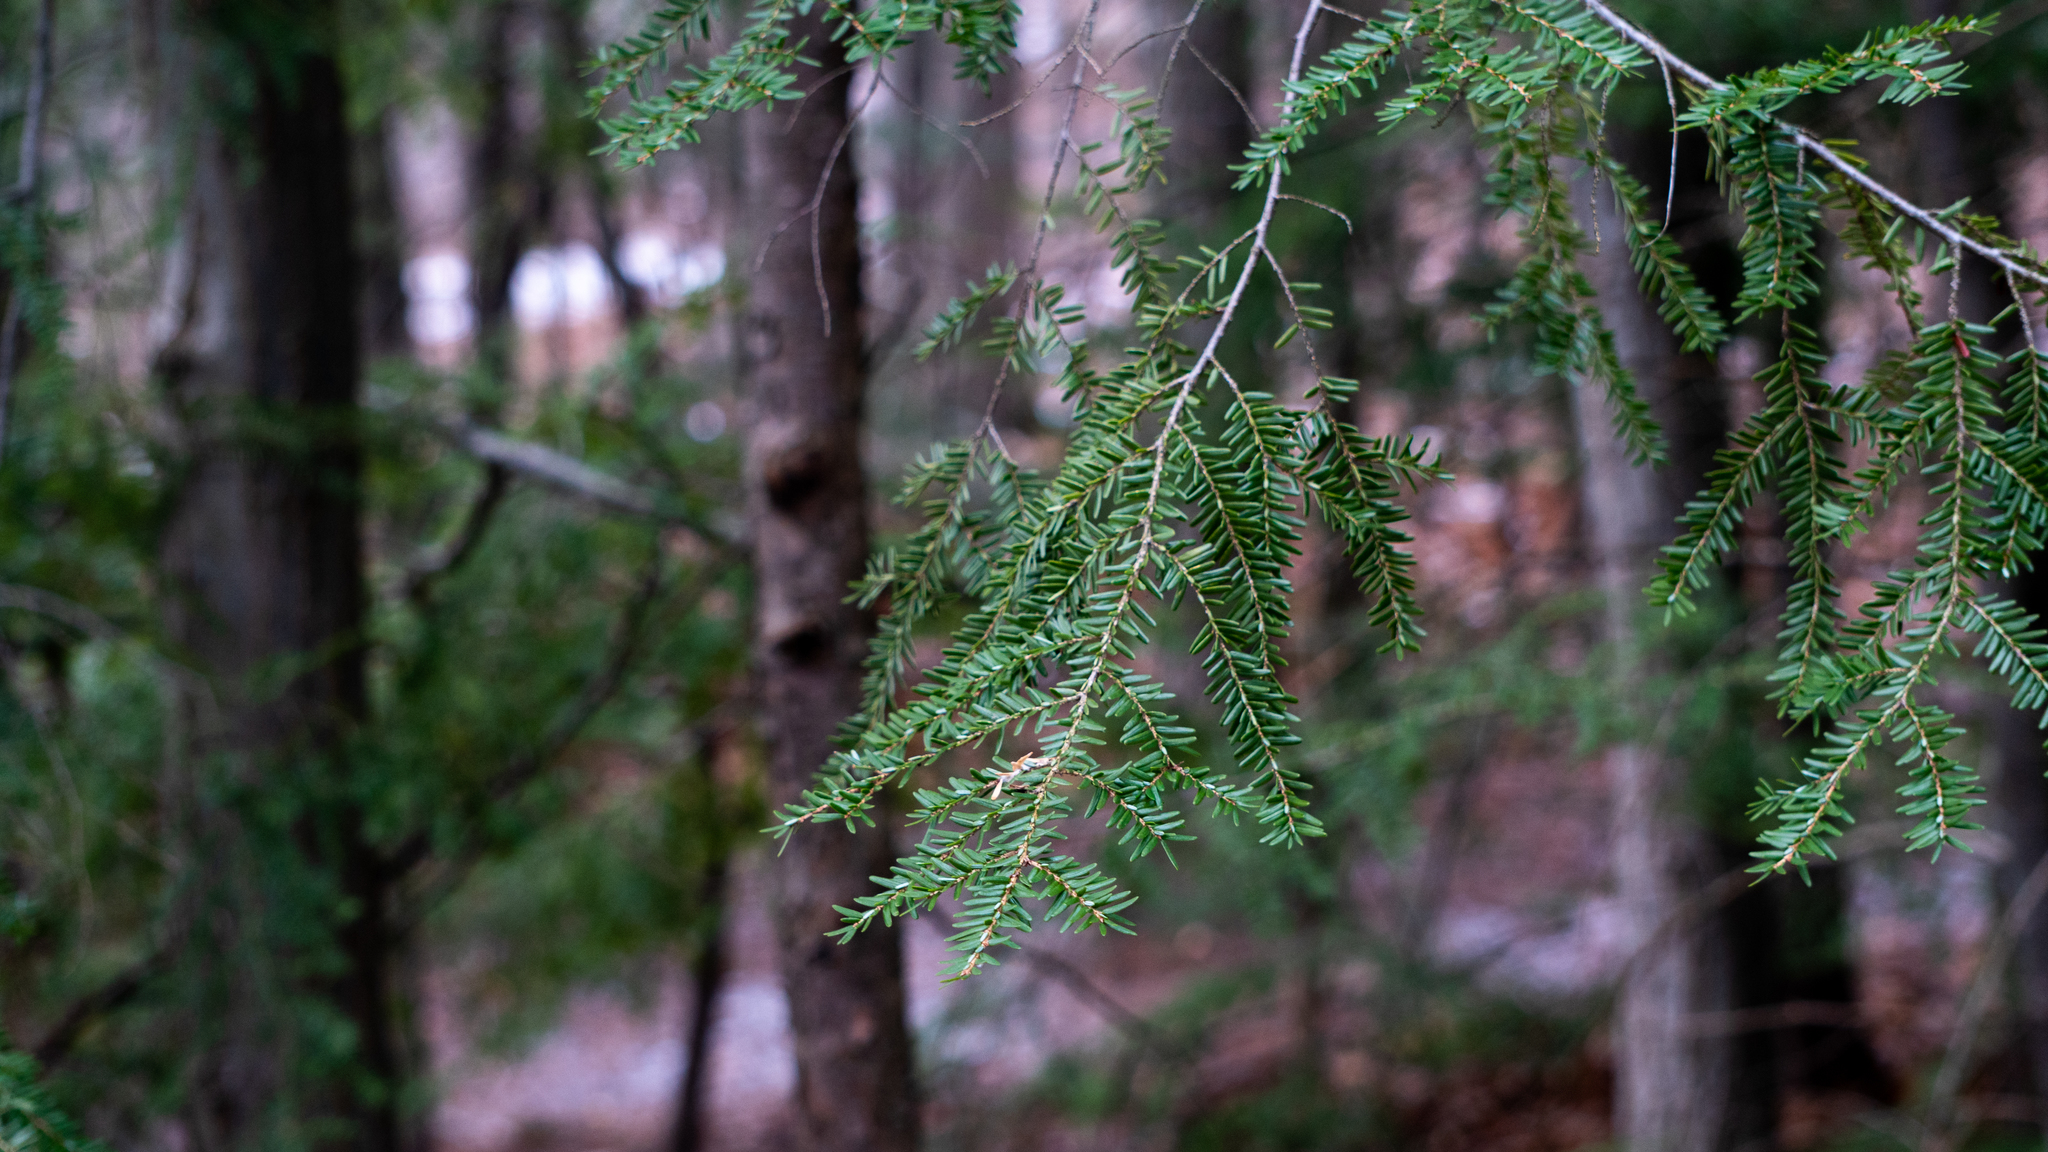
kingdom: Plantae
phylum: Tracheophyta
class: Pinopsida
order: Pinales
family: Pinaceae
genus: Tsuga
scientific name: Tsuga canadensis
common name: Eastern hemlock
